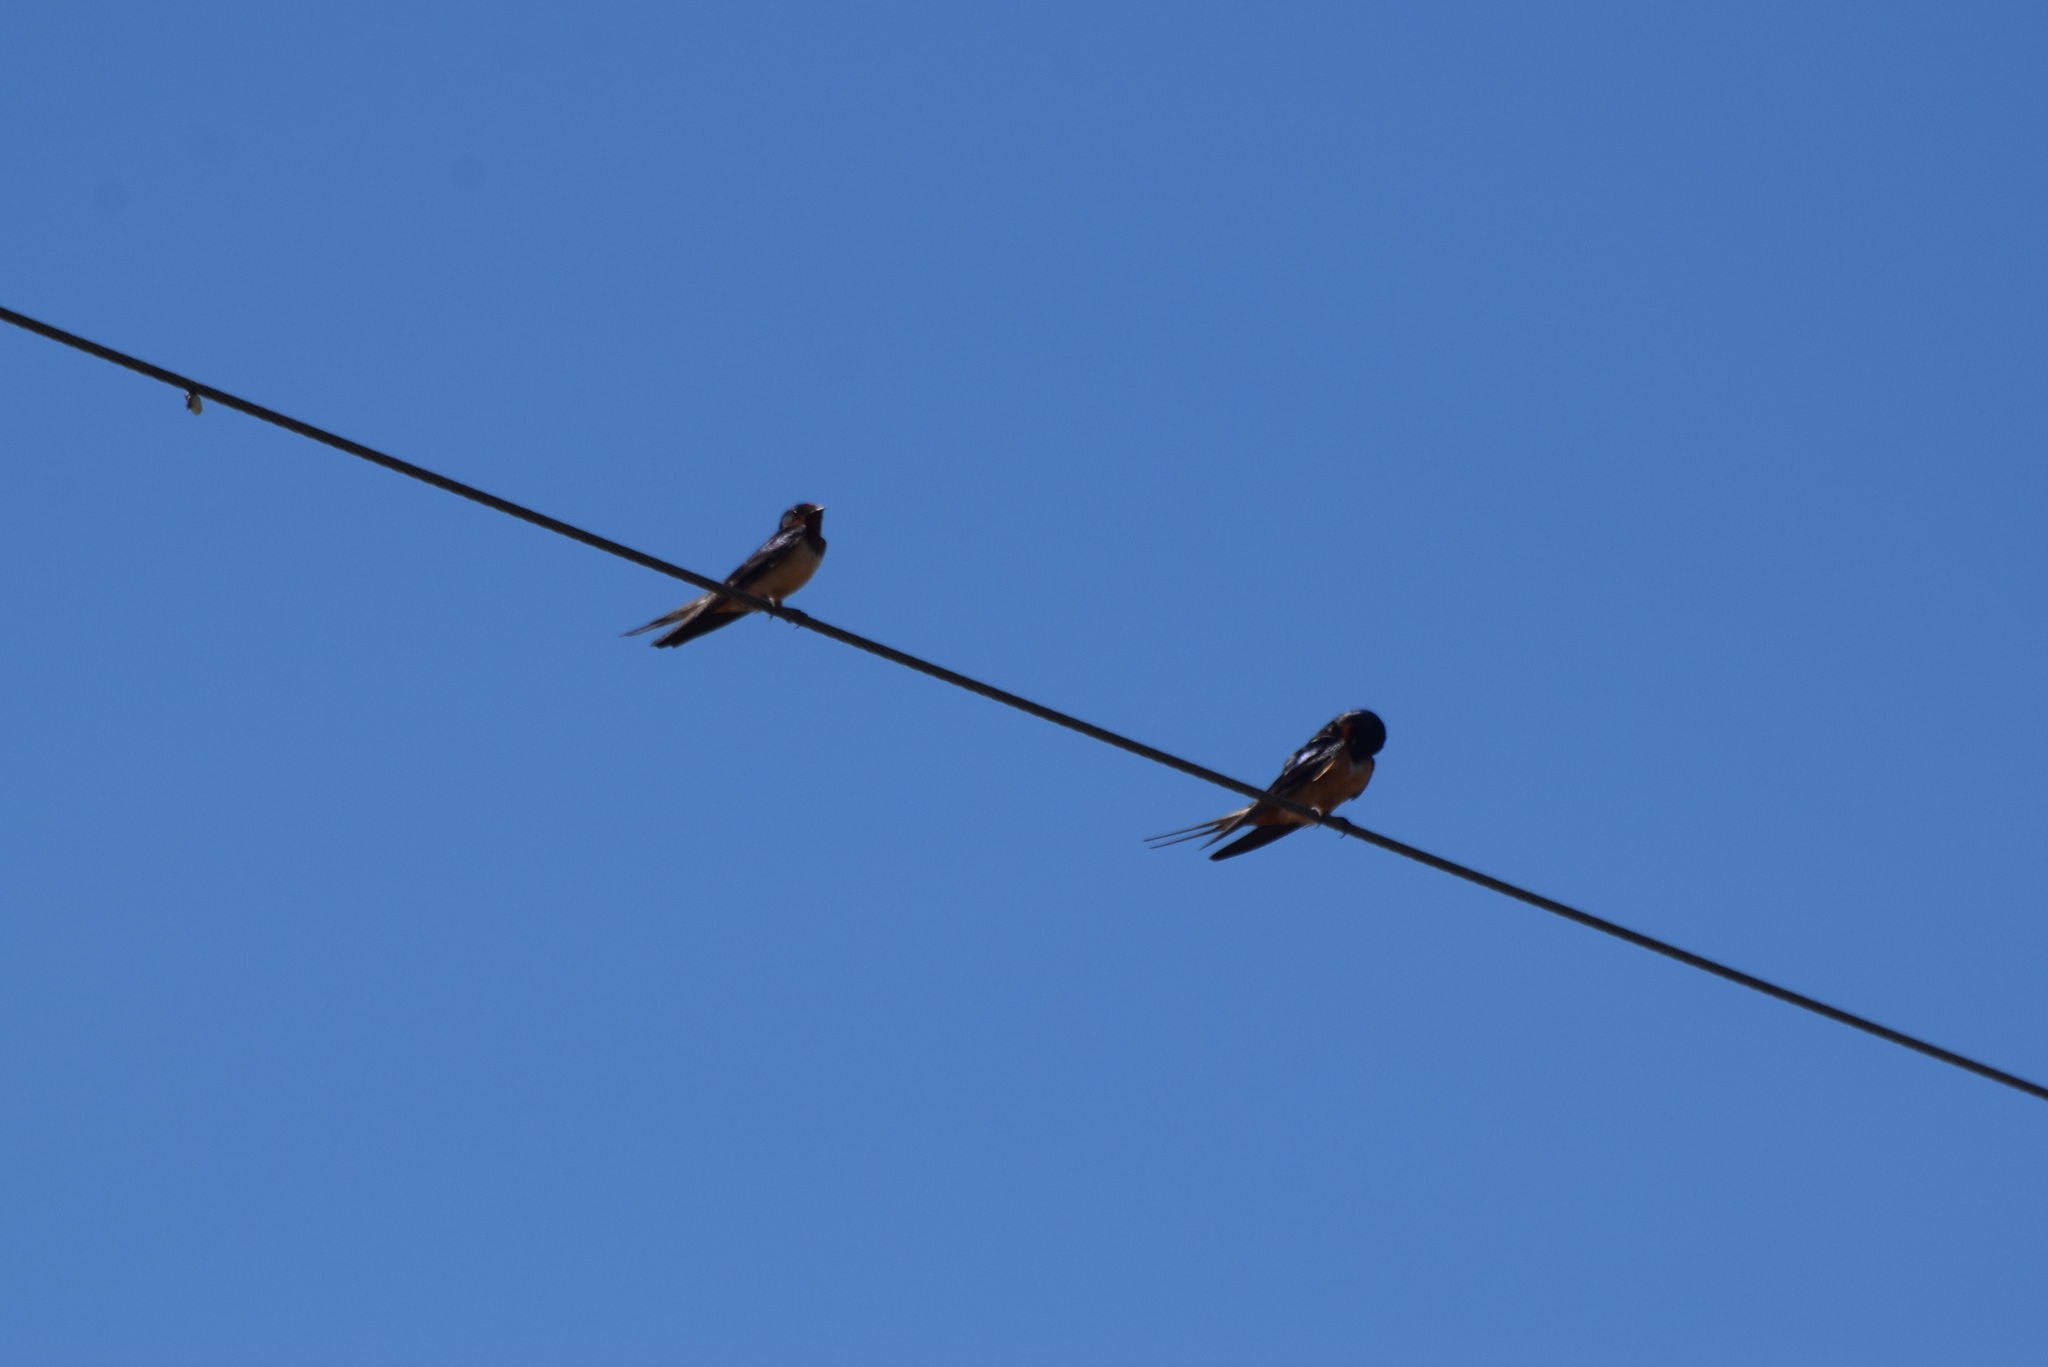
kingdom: Animalia
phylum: Chordata
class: Aves
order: Passeriformes
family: Hirundinidae
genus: Hirundo
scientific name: Hirundo rustica
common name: Barn swallow
